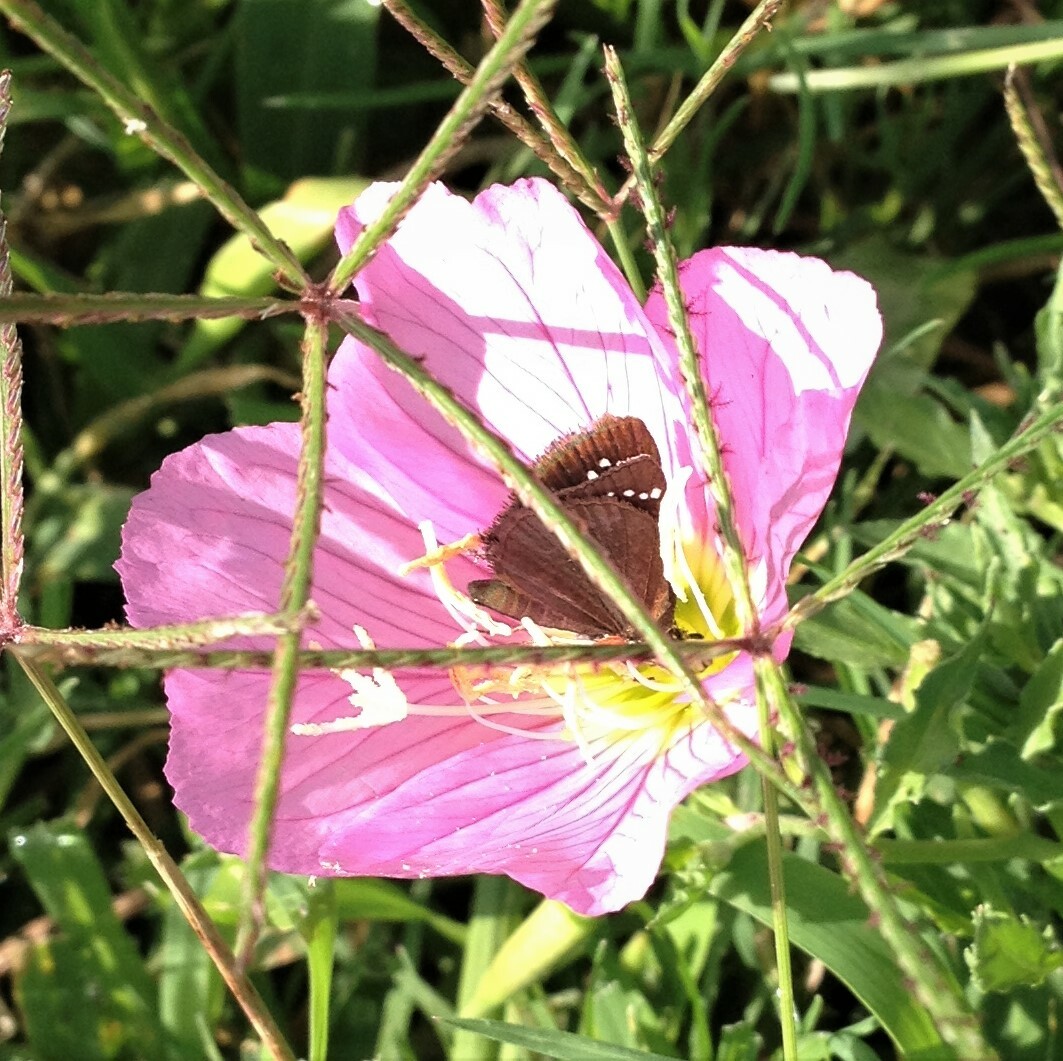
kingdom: Animalia
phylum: Arthropoda
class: Insecta
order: Lepidoptera
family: Hesperiidae
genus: Pholisora
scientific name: Pholisora catullus
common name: Common sootywing
